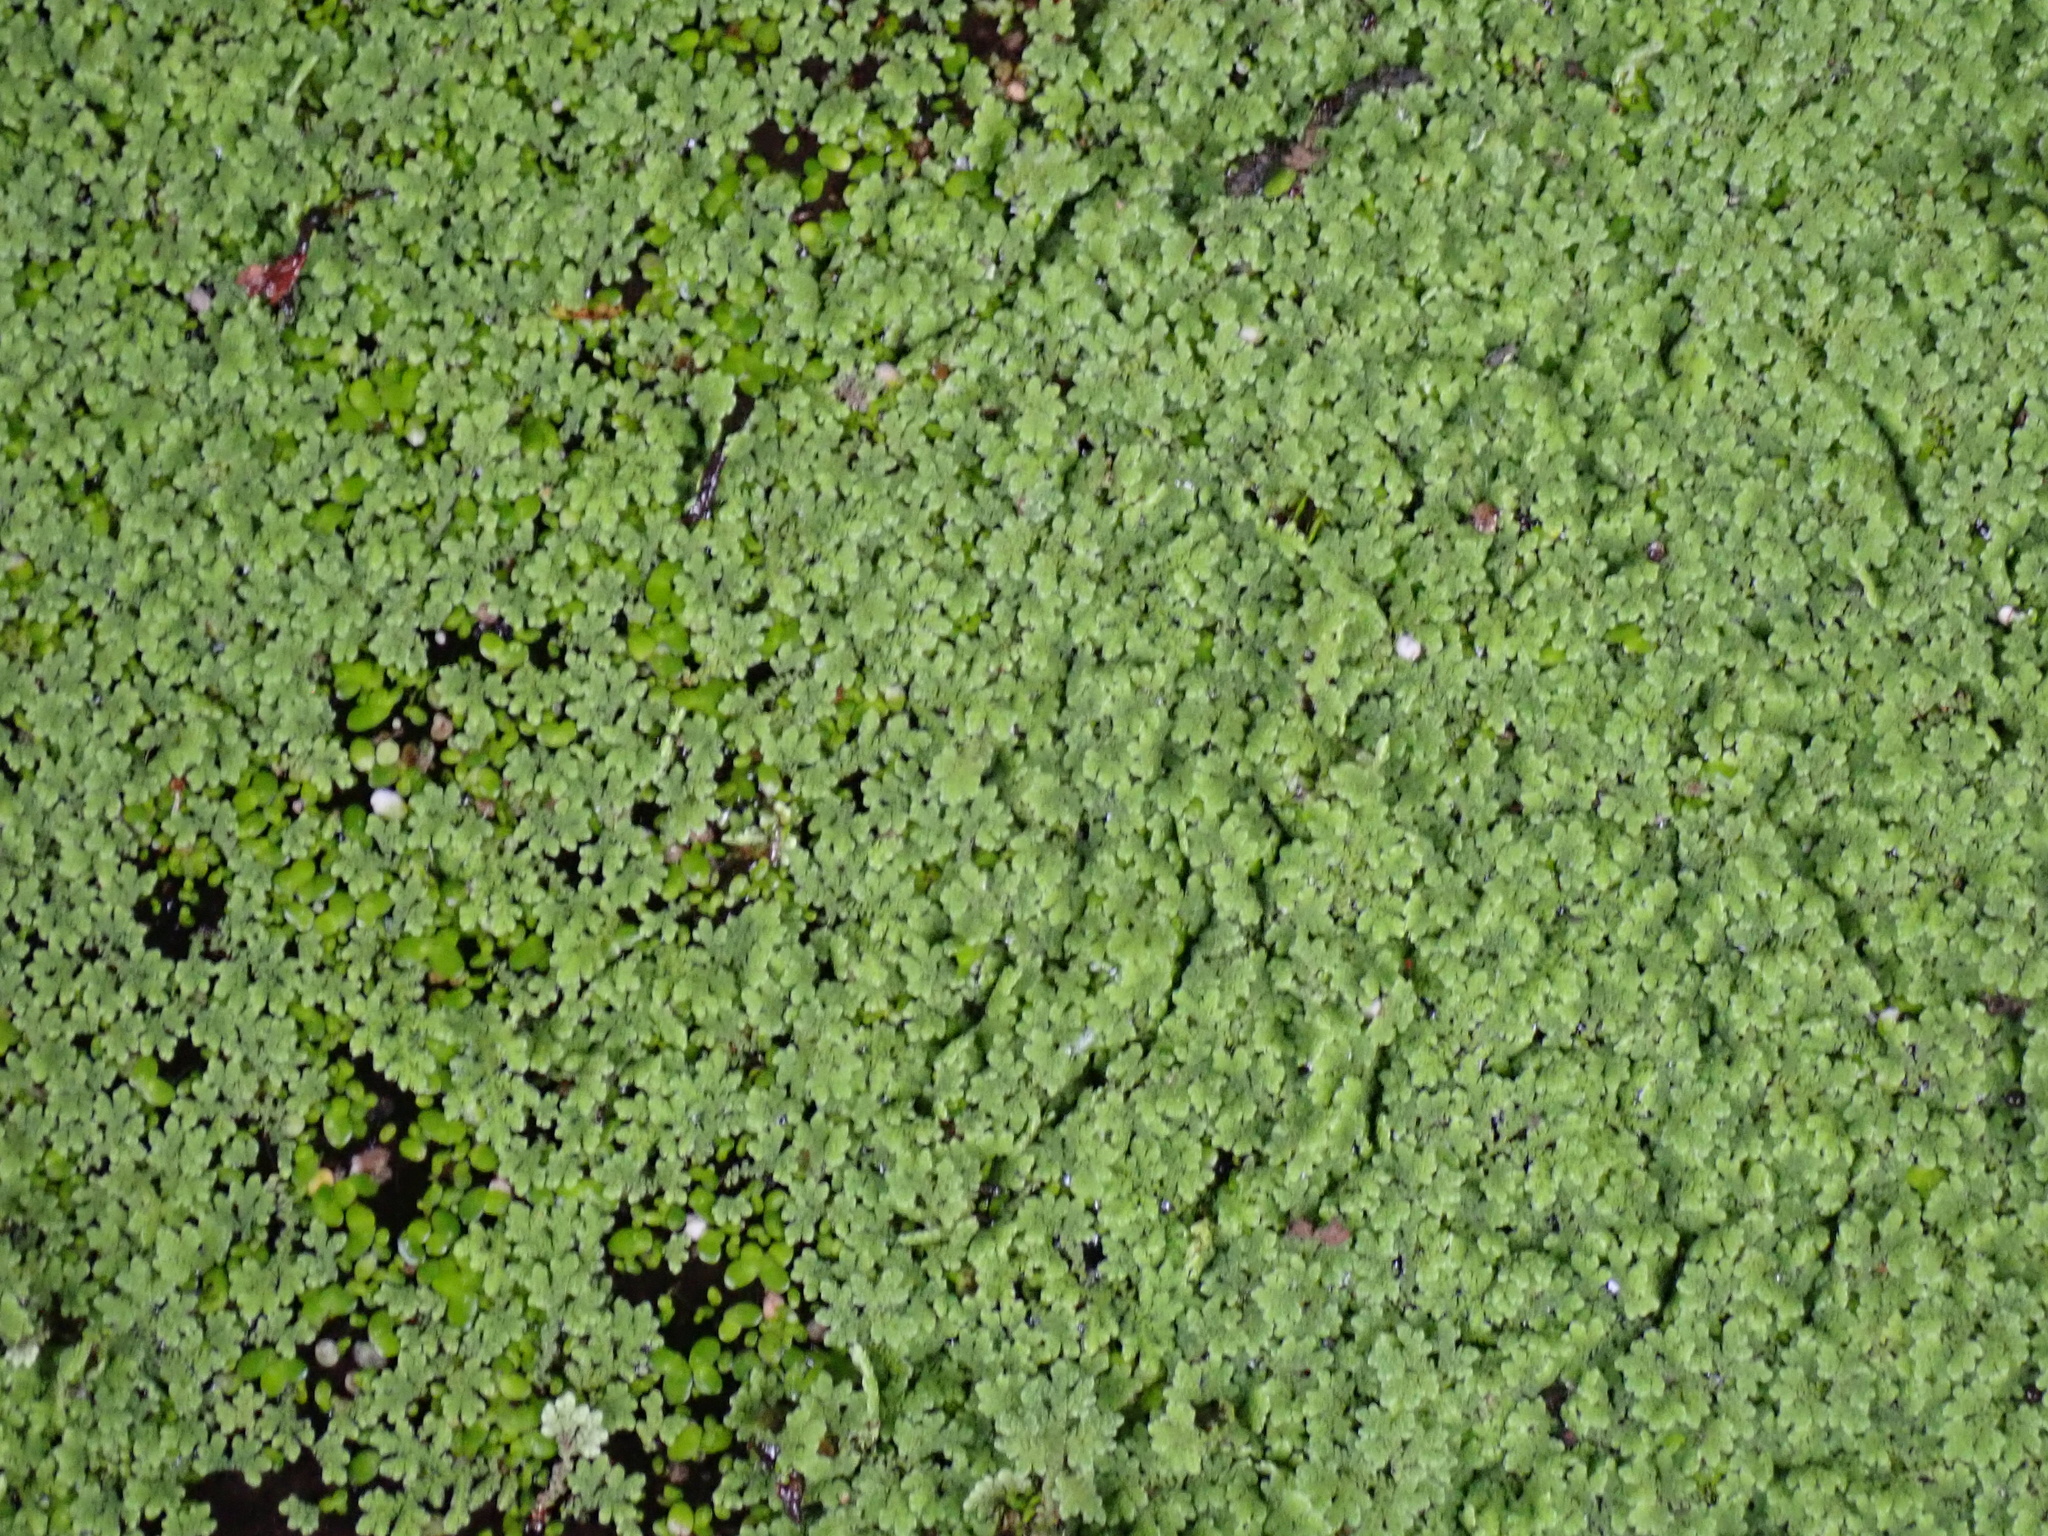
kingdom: Plantae
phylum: Tracheophyta
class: Polypodiopsida
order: Salviniales
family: Salviniaceae
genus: Azolla
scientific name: Azolla filiculoides
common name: Water fern
